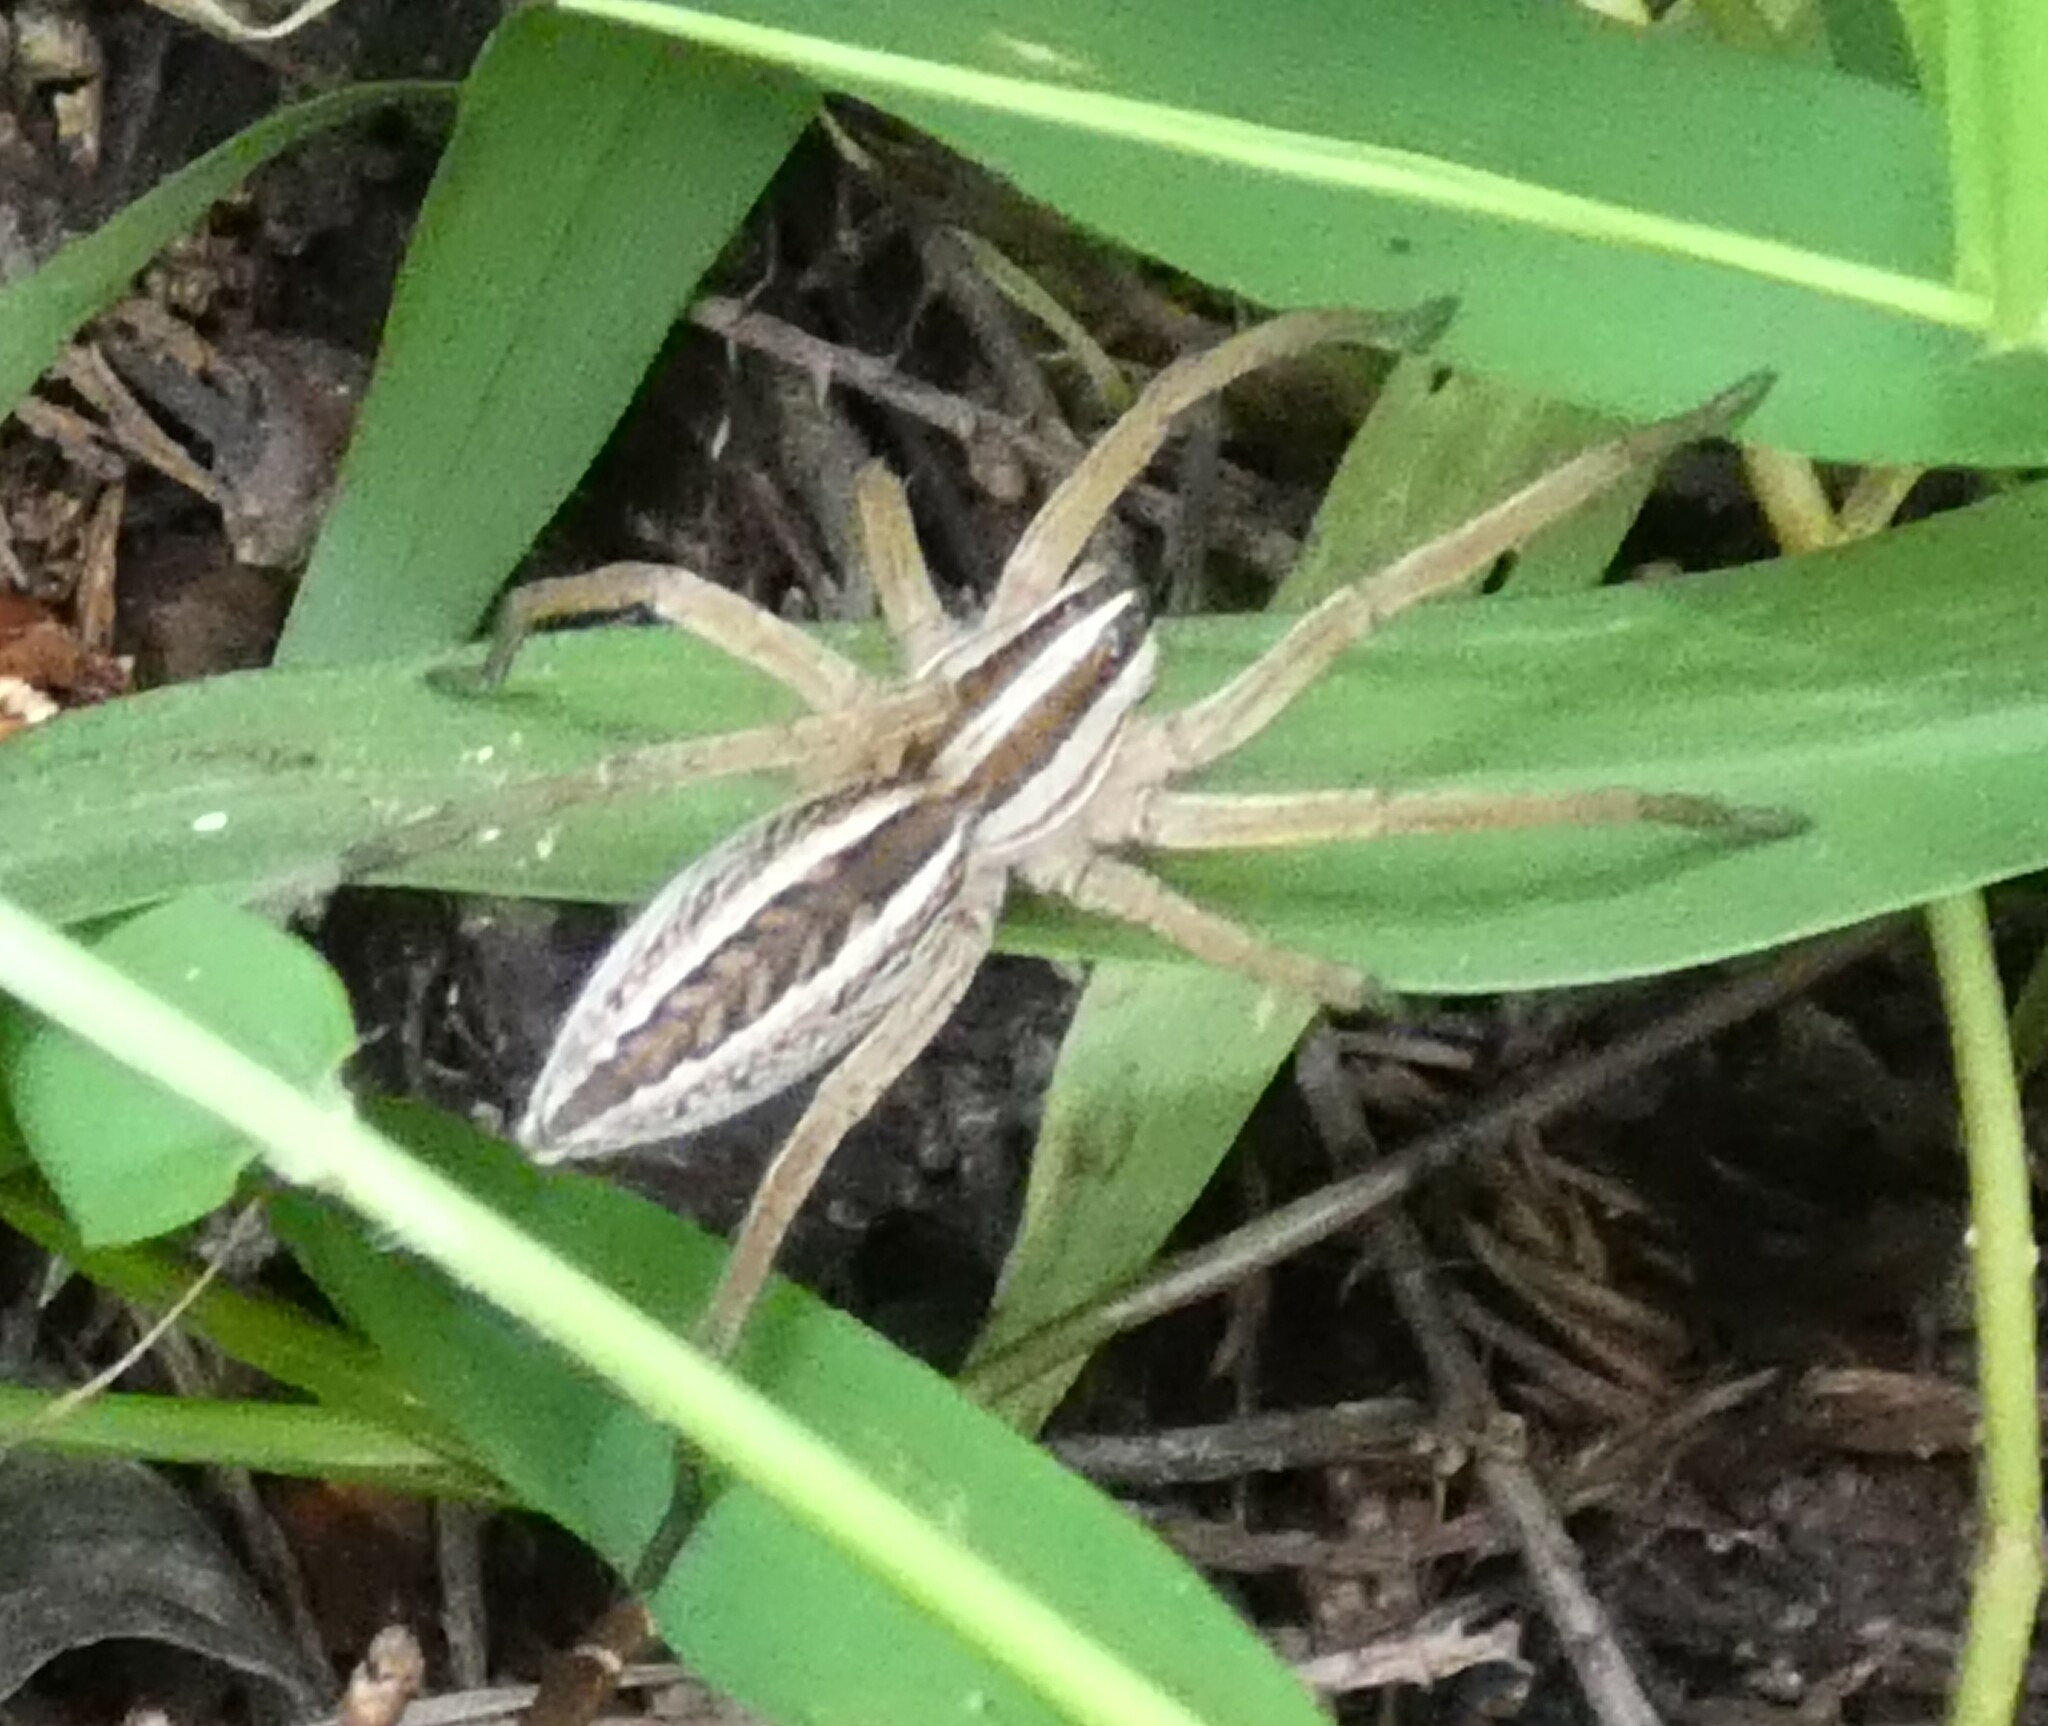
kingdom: Animalia
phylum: Arthropoda
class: Arachnida
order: Araneae
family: Lycosidae
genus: Rabidosa
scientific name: Rabidosa rabida
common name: Rabid wolf spider
